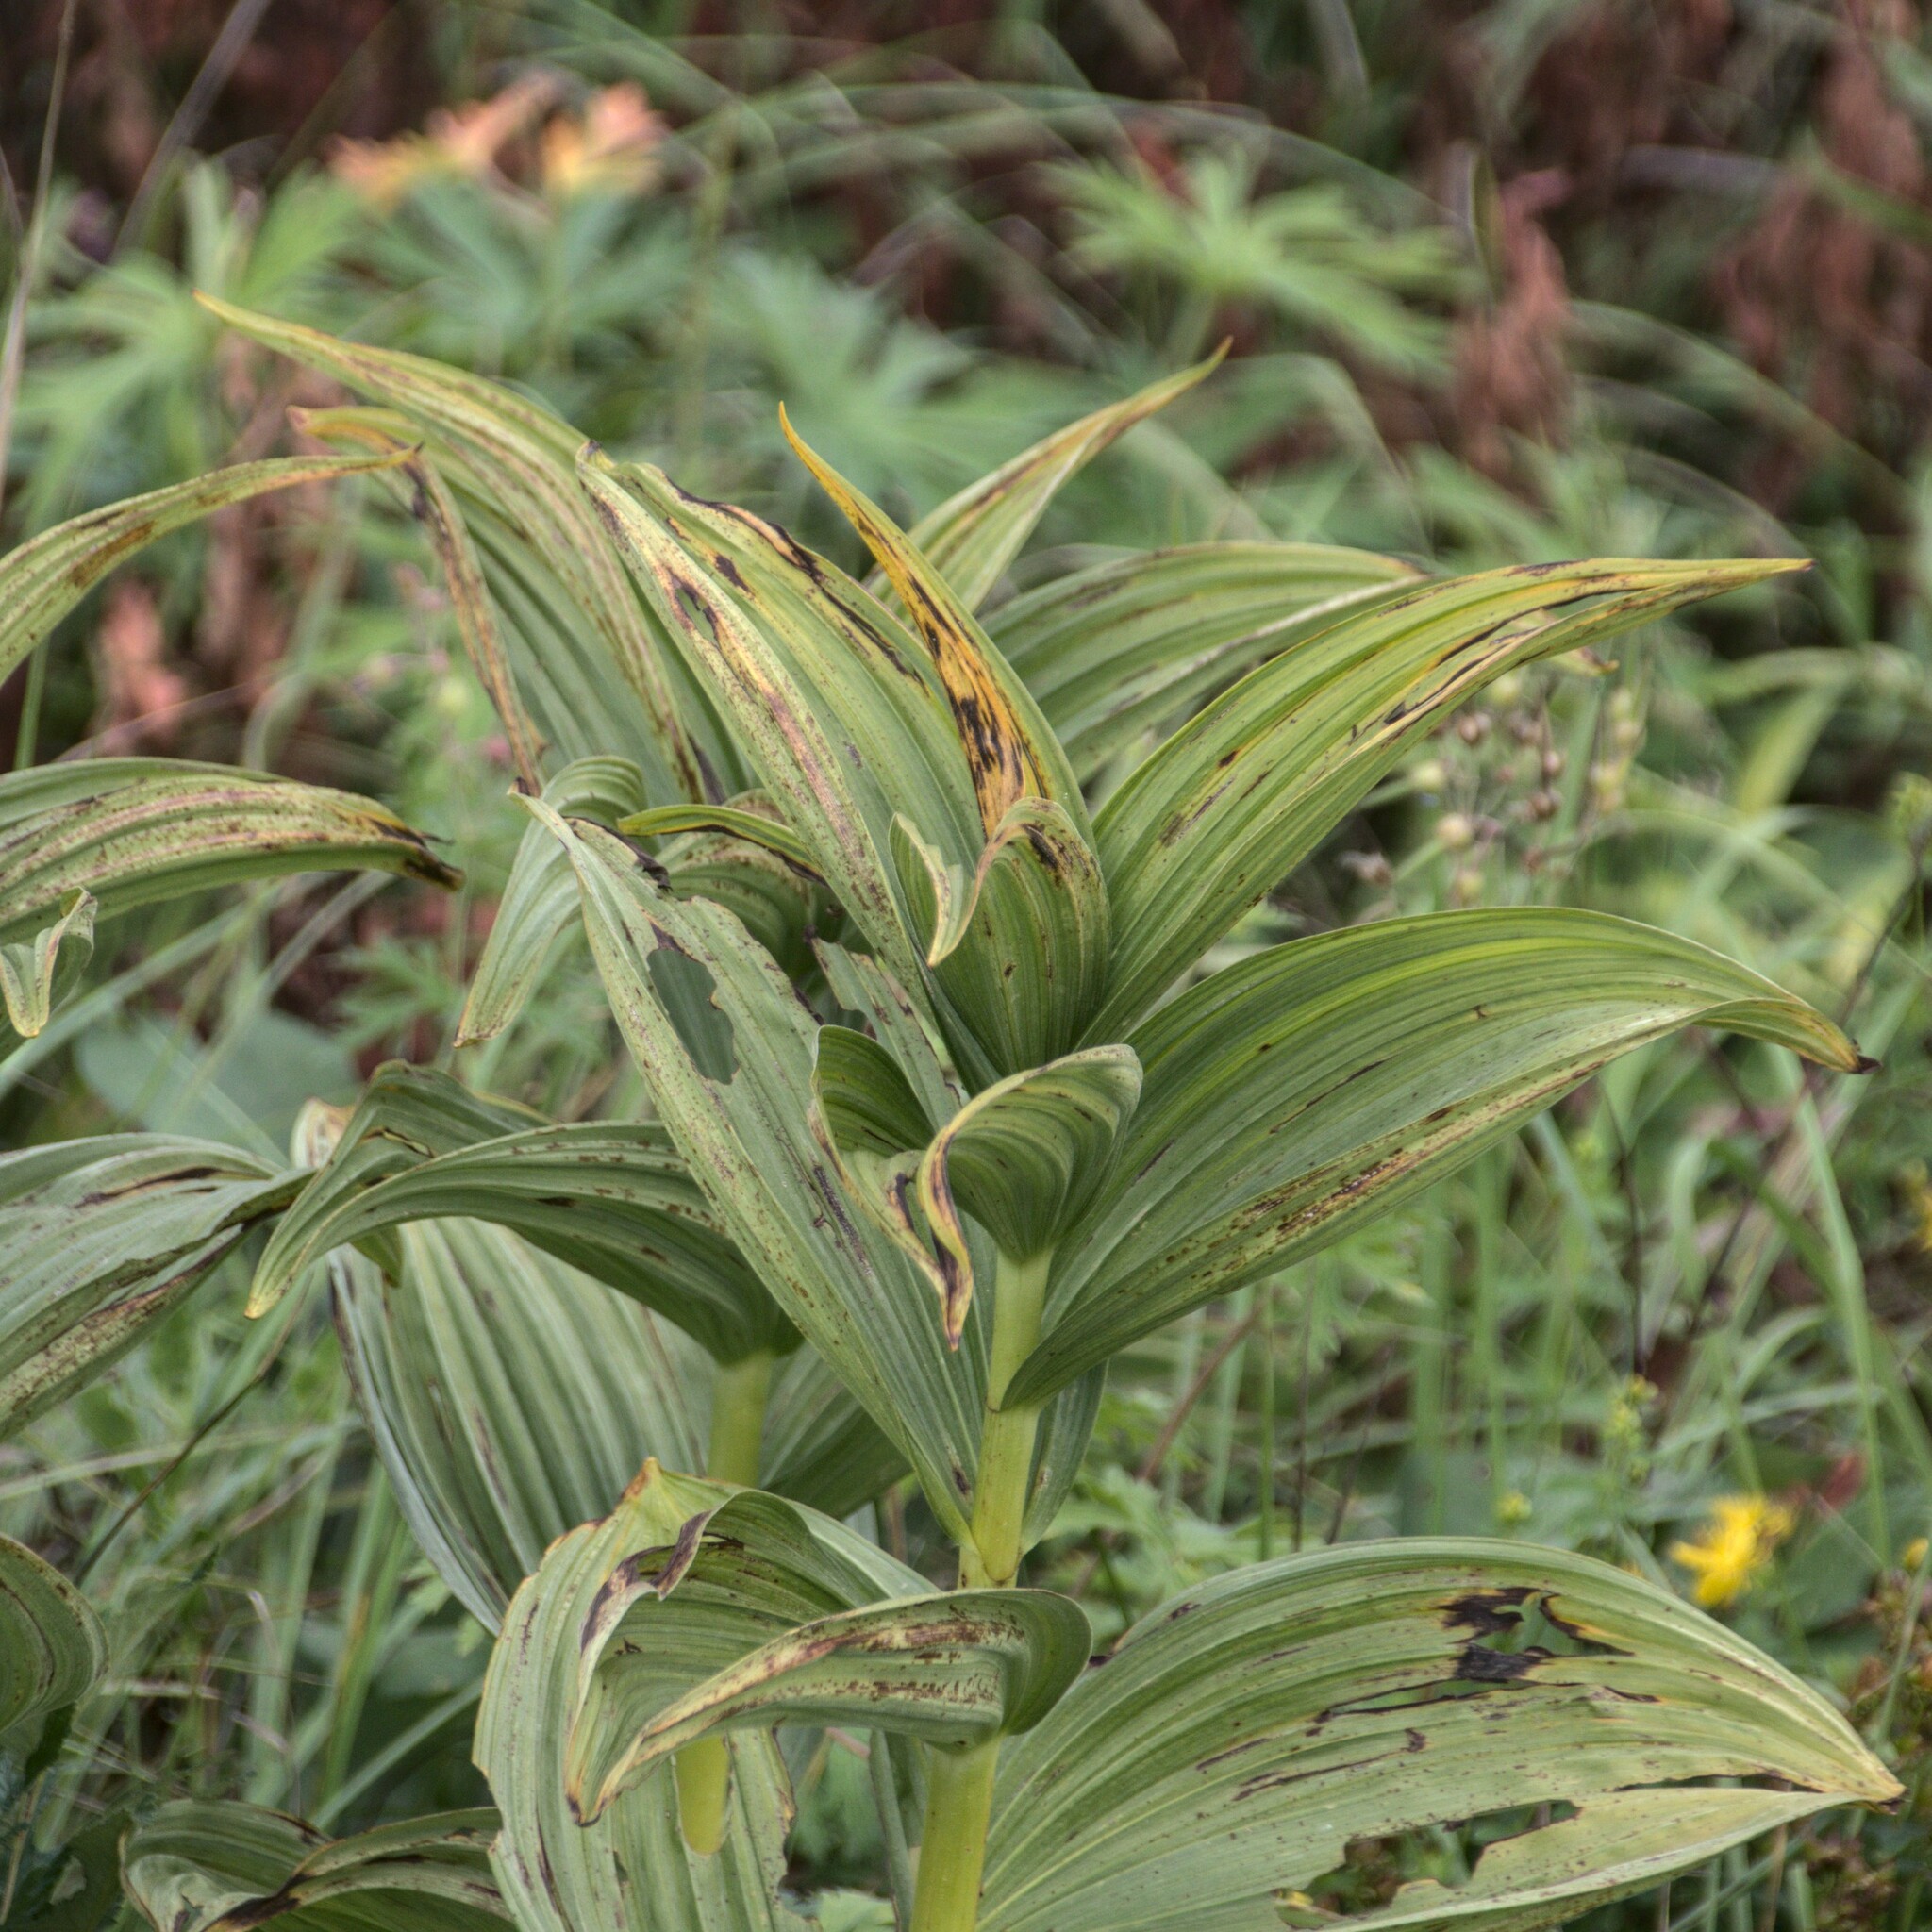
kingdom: Plantae
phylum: Tracheophyta
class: Liliopsida
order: Liliales
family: Melanthiaceae
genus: Veratrum
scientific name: Veratrum lobelianum
